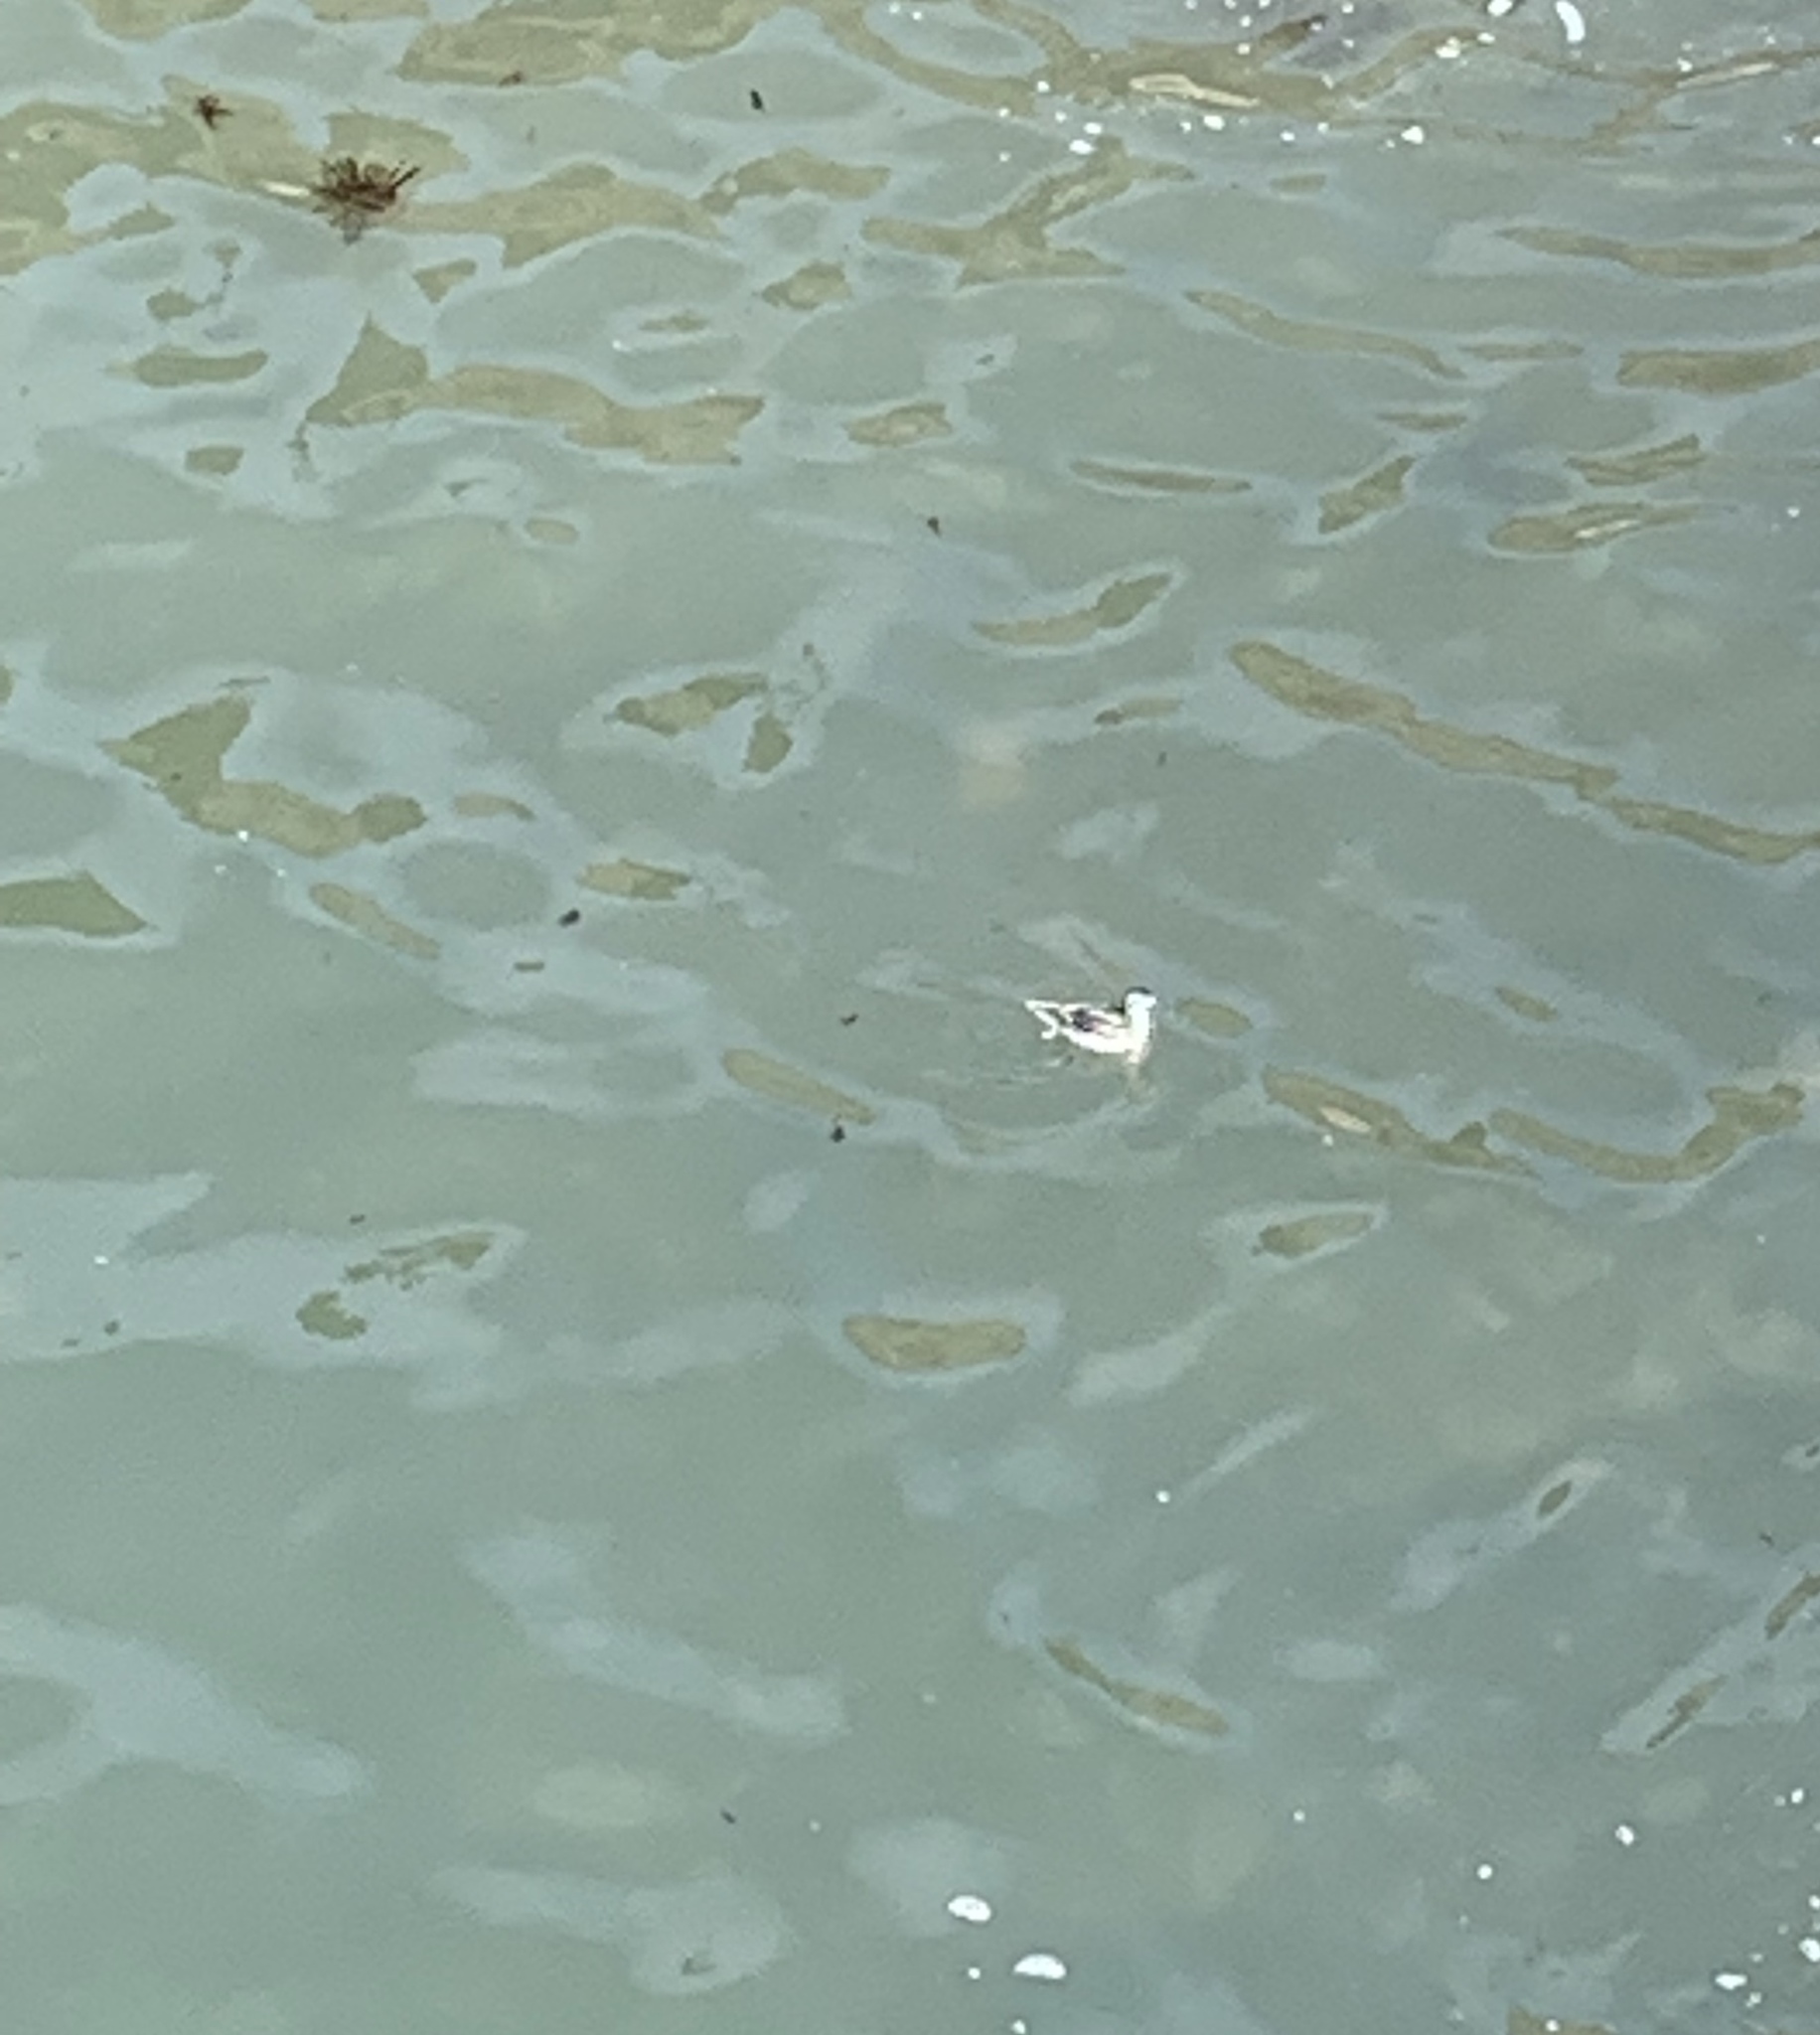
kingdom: Animalia
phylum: Chordata
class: Aves
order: Charadriiformes
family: Scolopacidae
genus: Phalaropus
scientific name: Phalaropus lobatus
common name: Red-necked phalarope
